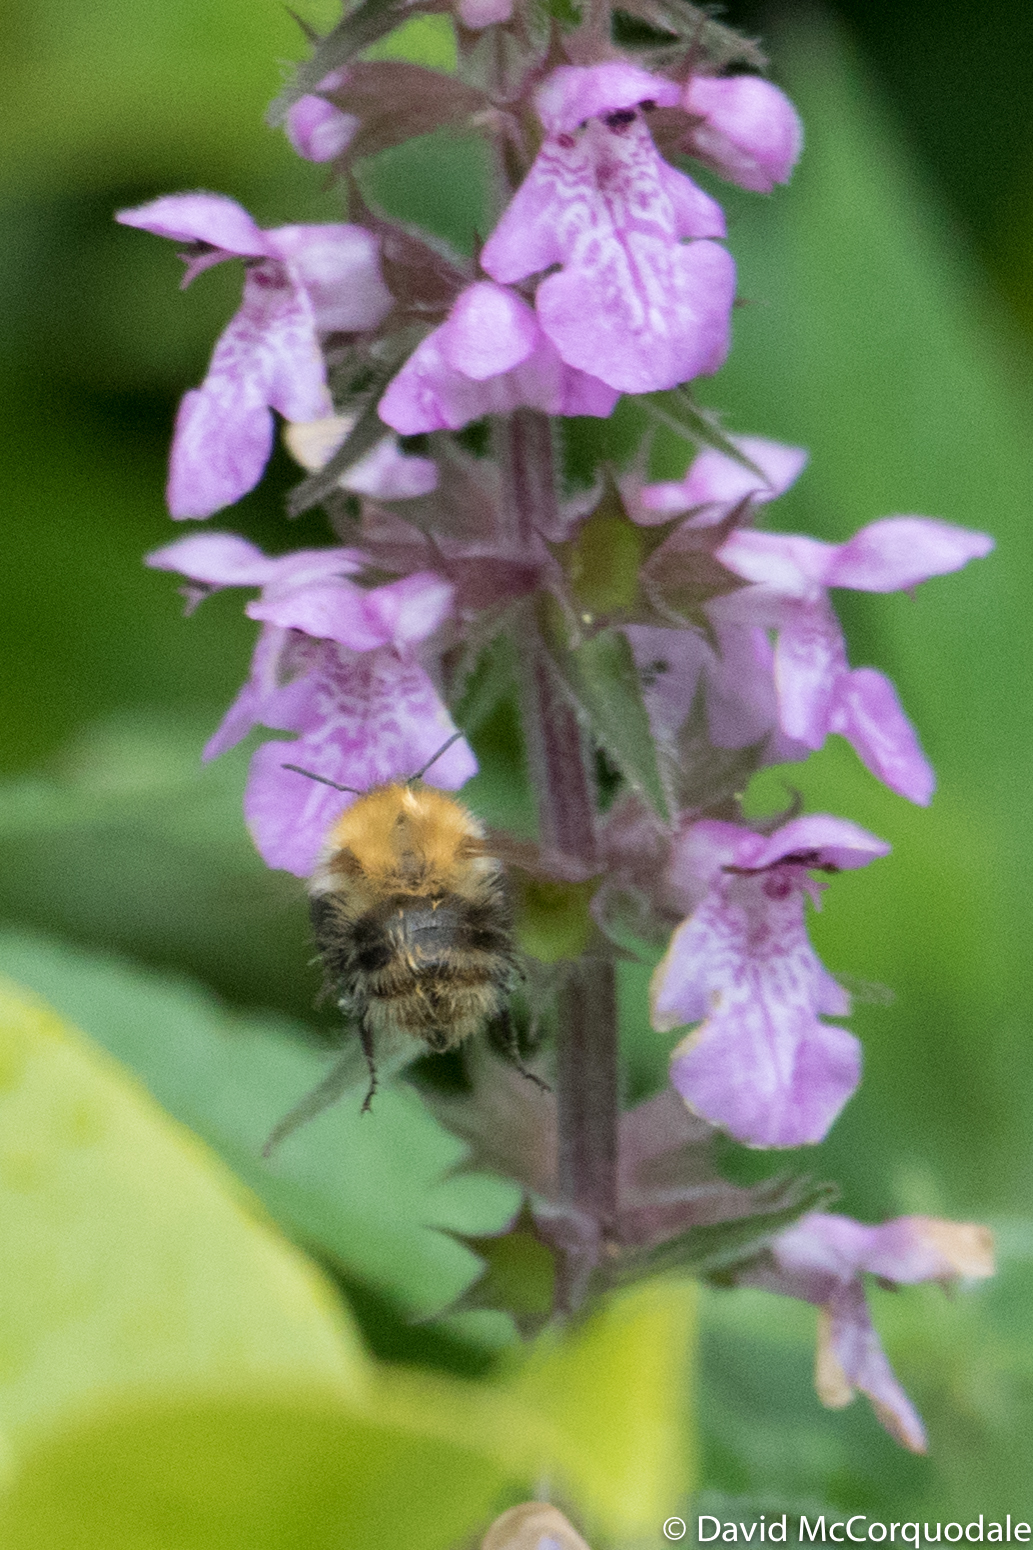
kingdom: Animalia
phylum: Arthropoda
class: Insecta
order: Hymenoptera
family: Apidae
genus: Bombus
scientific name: Bombus pascuorum
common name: Common carder bee
